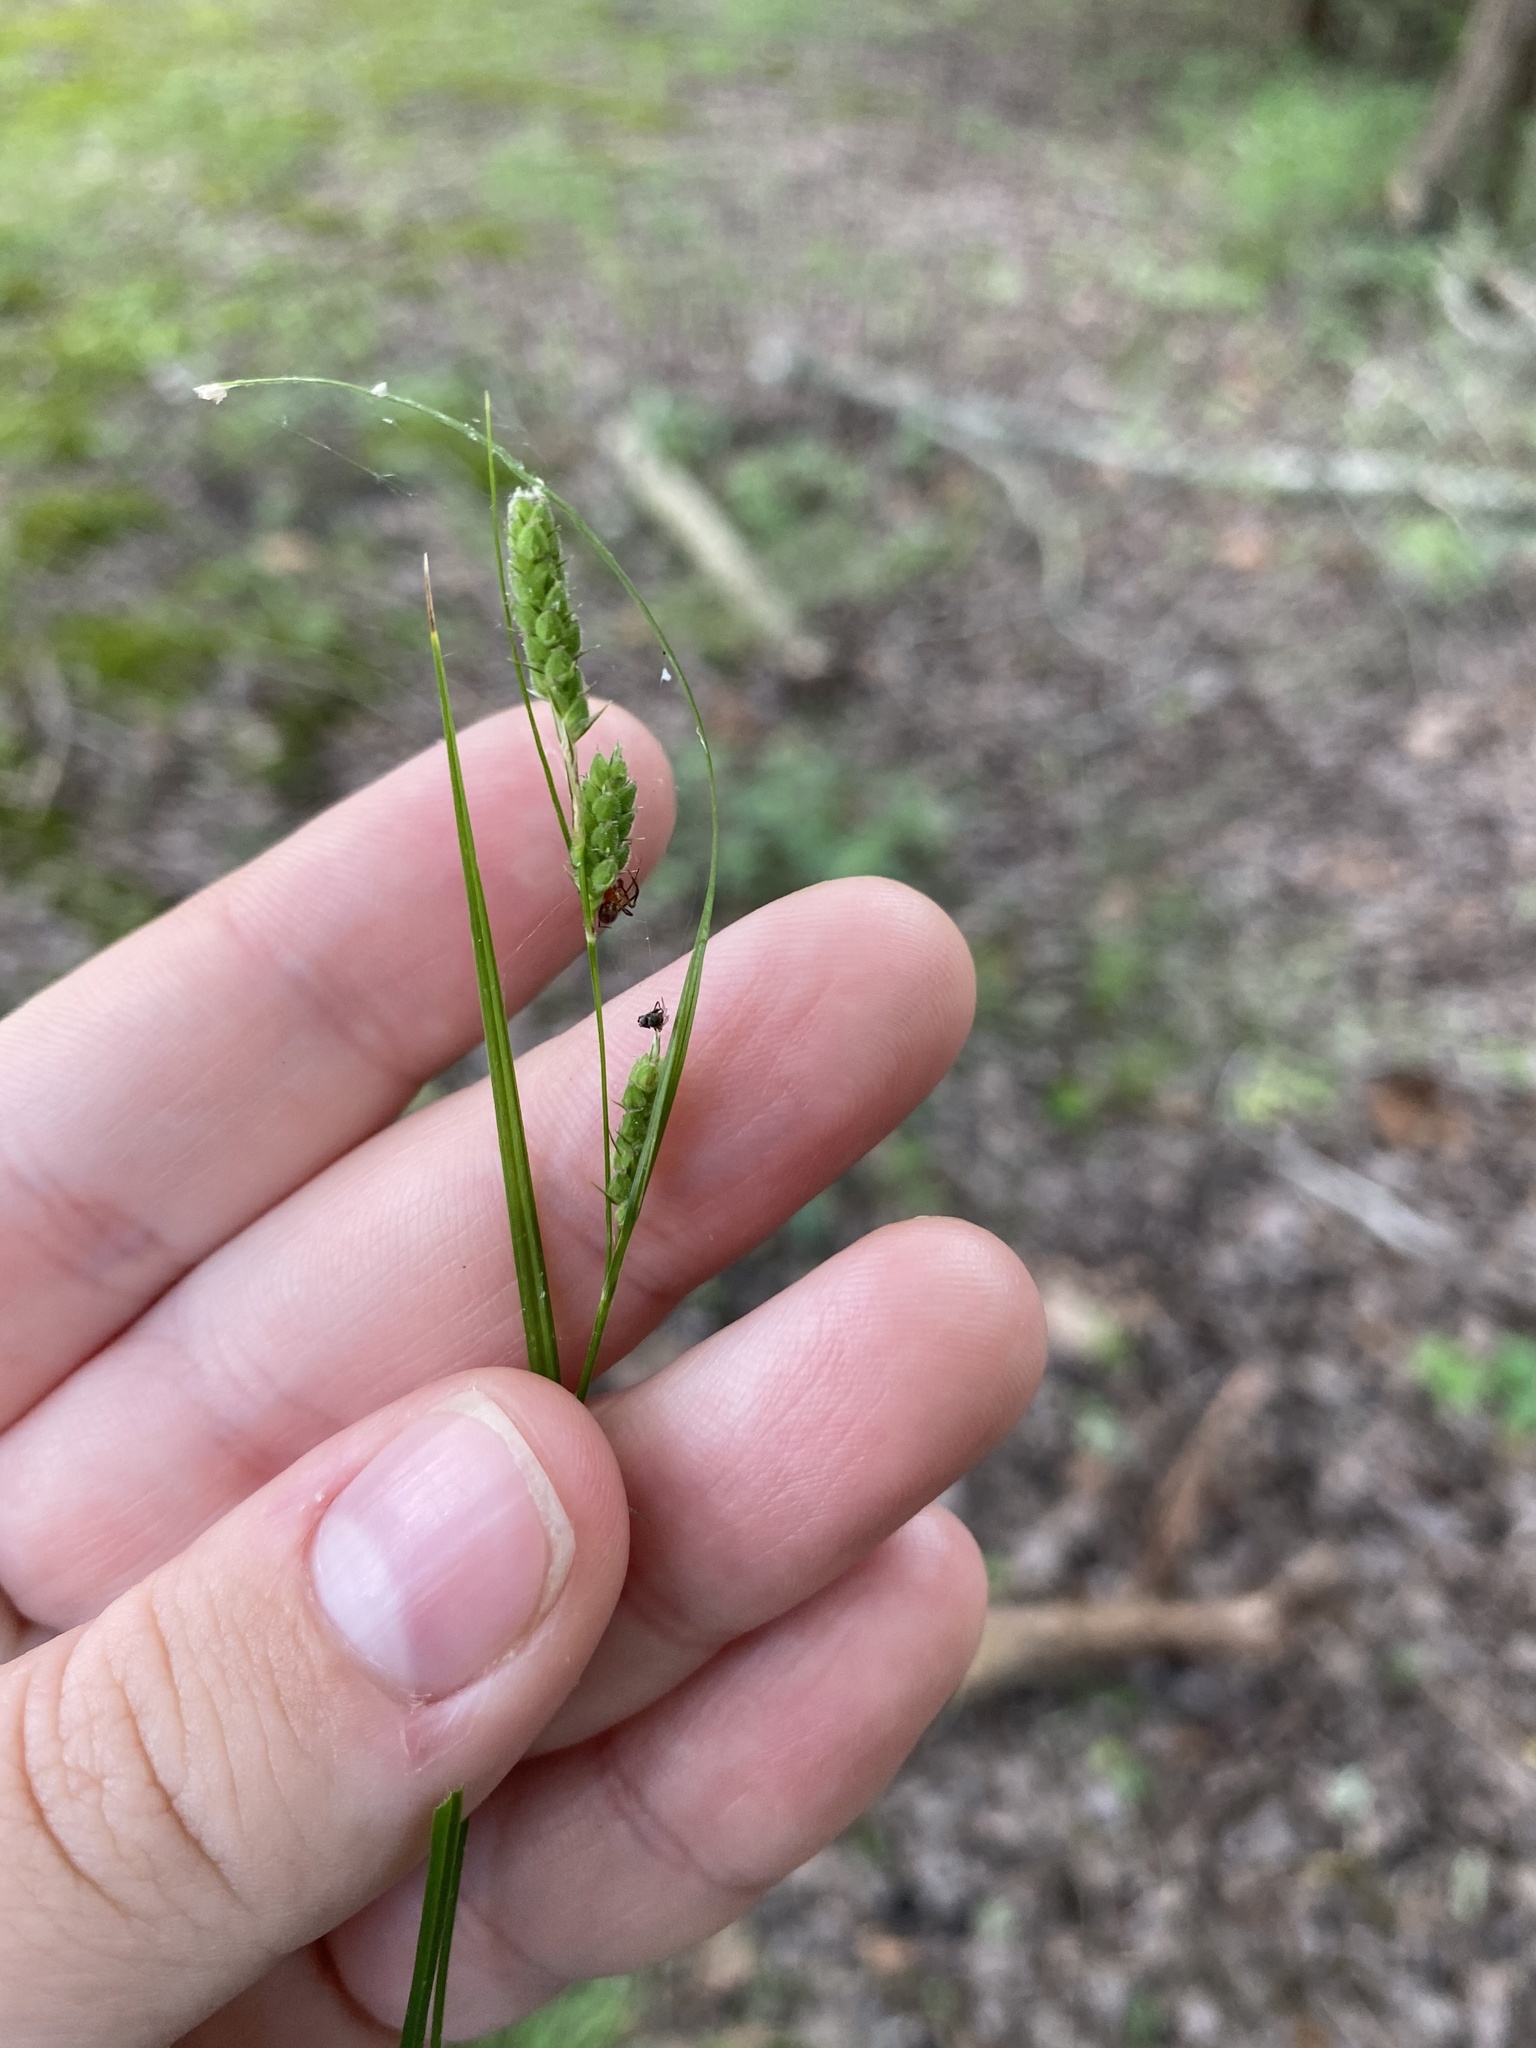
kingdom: Plantae
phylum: Tracheophyta
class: Liliopsida
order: Poales
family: Cyperaceae
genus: Carex
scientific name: Carex virescens
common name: Ribbed sedge
